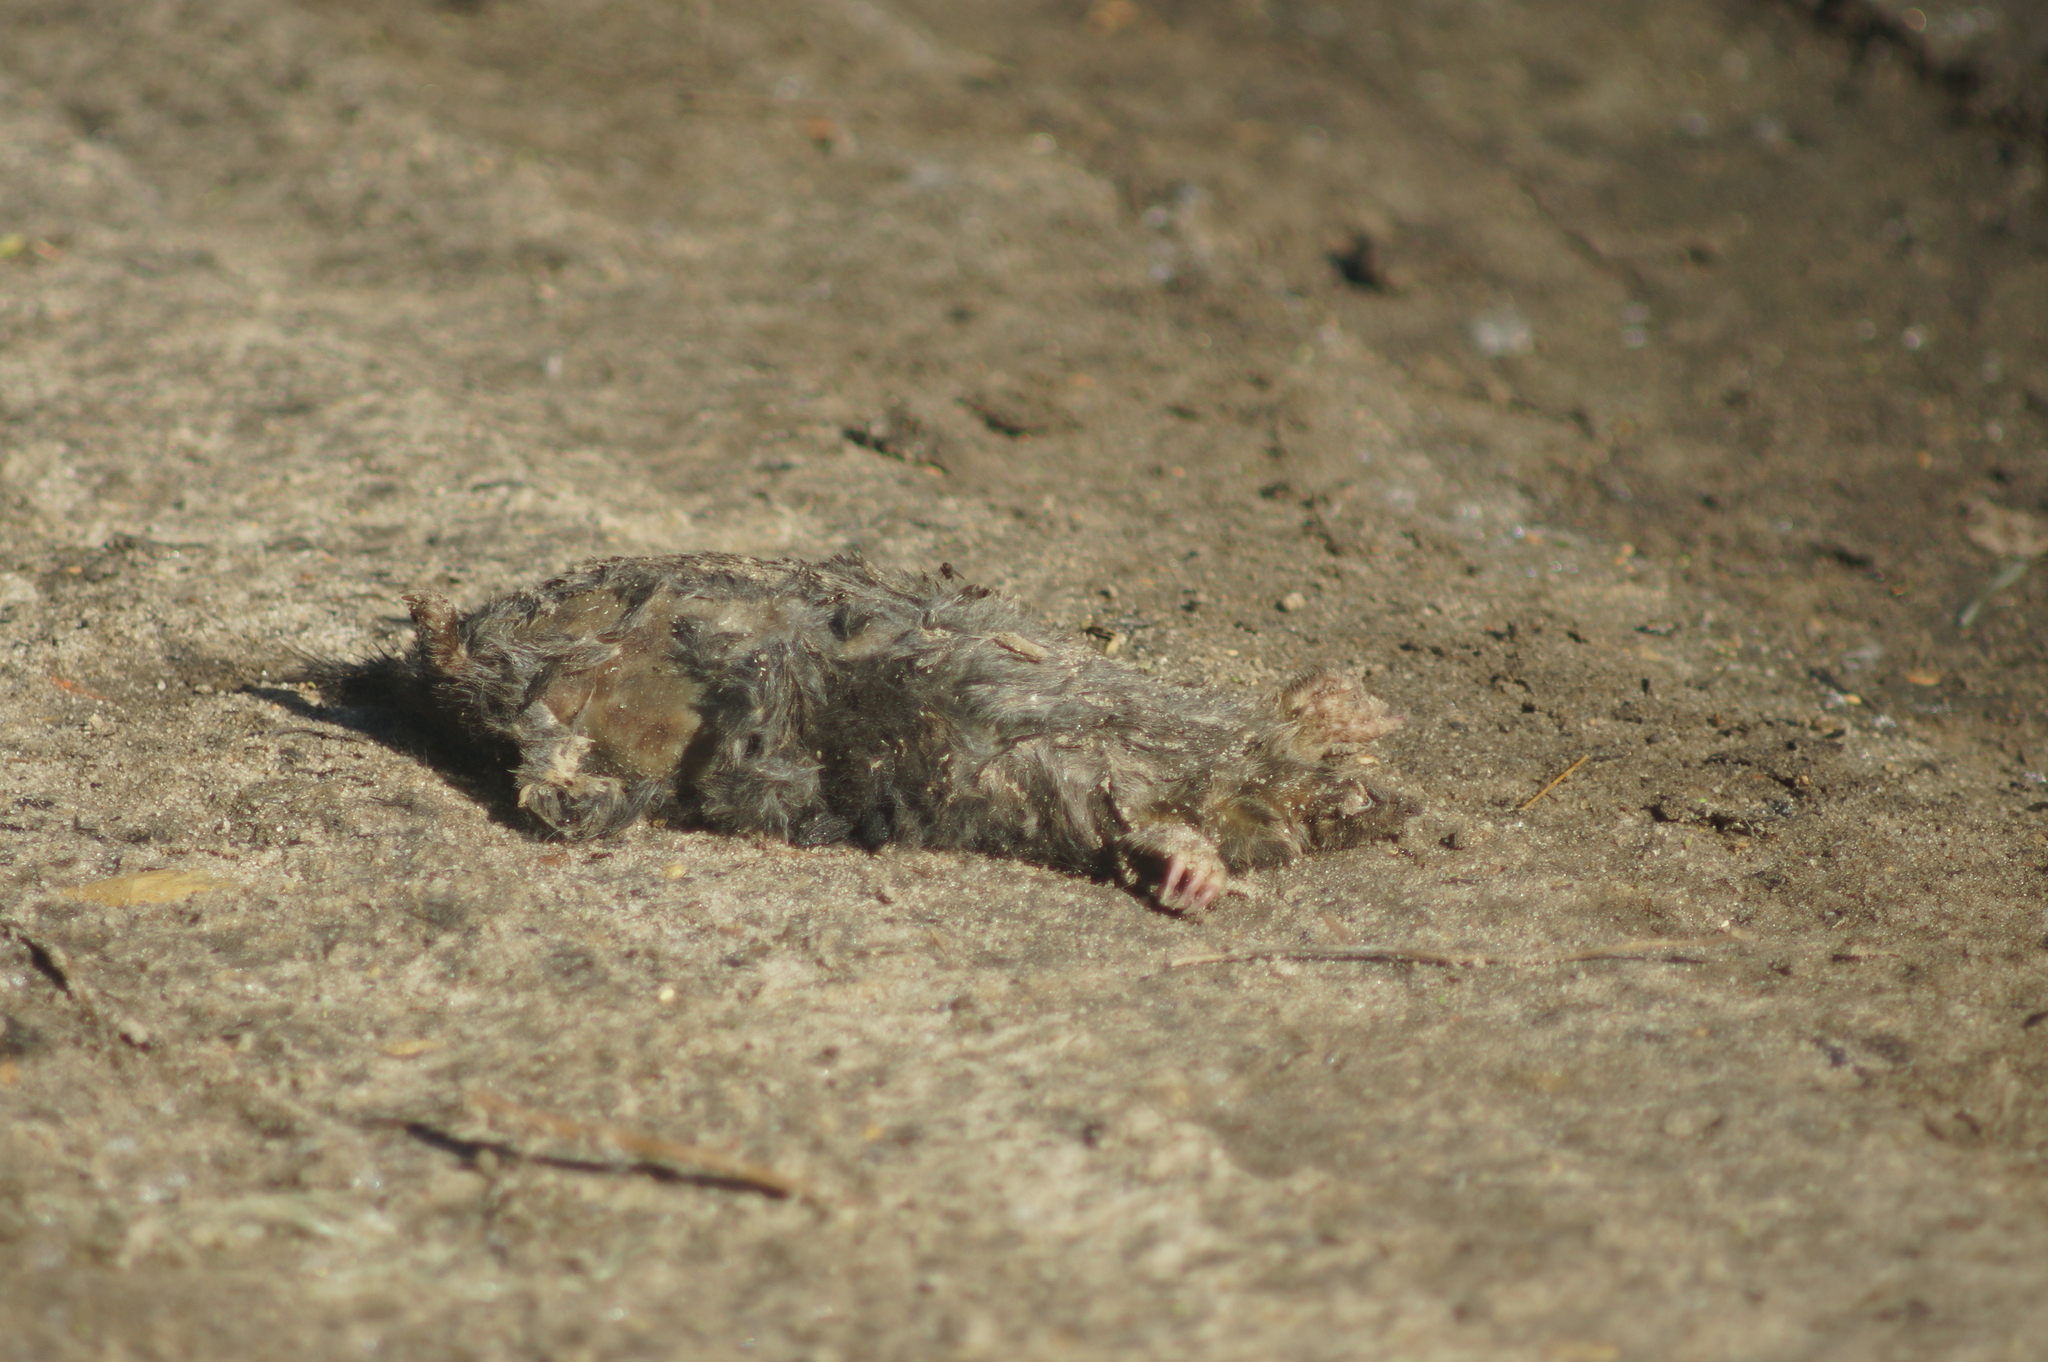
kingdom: Animalia
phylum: Chordata
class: Mammalia
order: Soricomorpha
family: Talpidae
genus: Talpa
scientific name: Talpa europaea
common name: European mole
